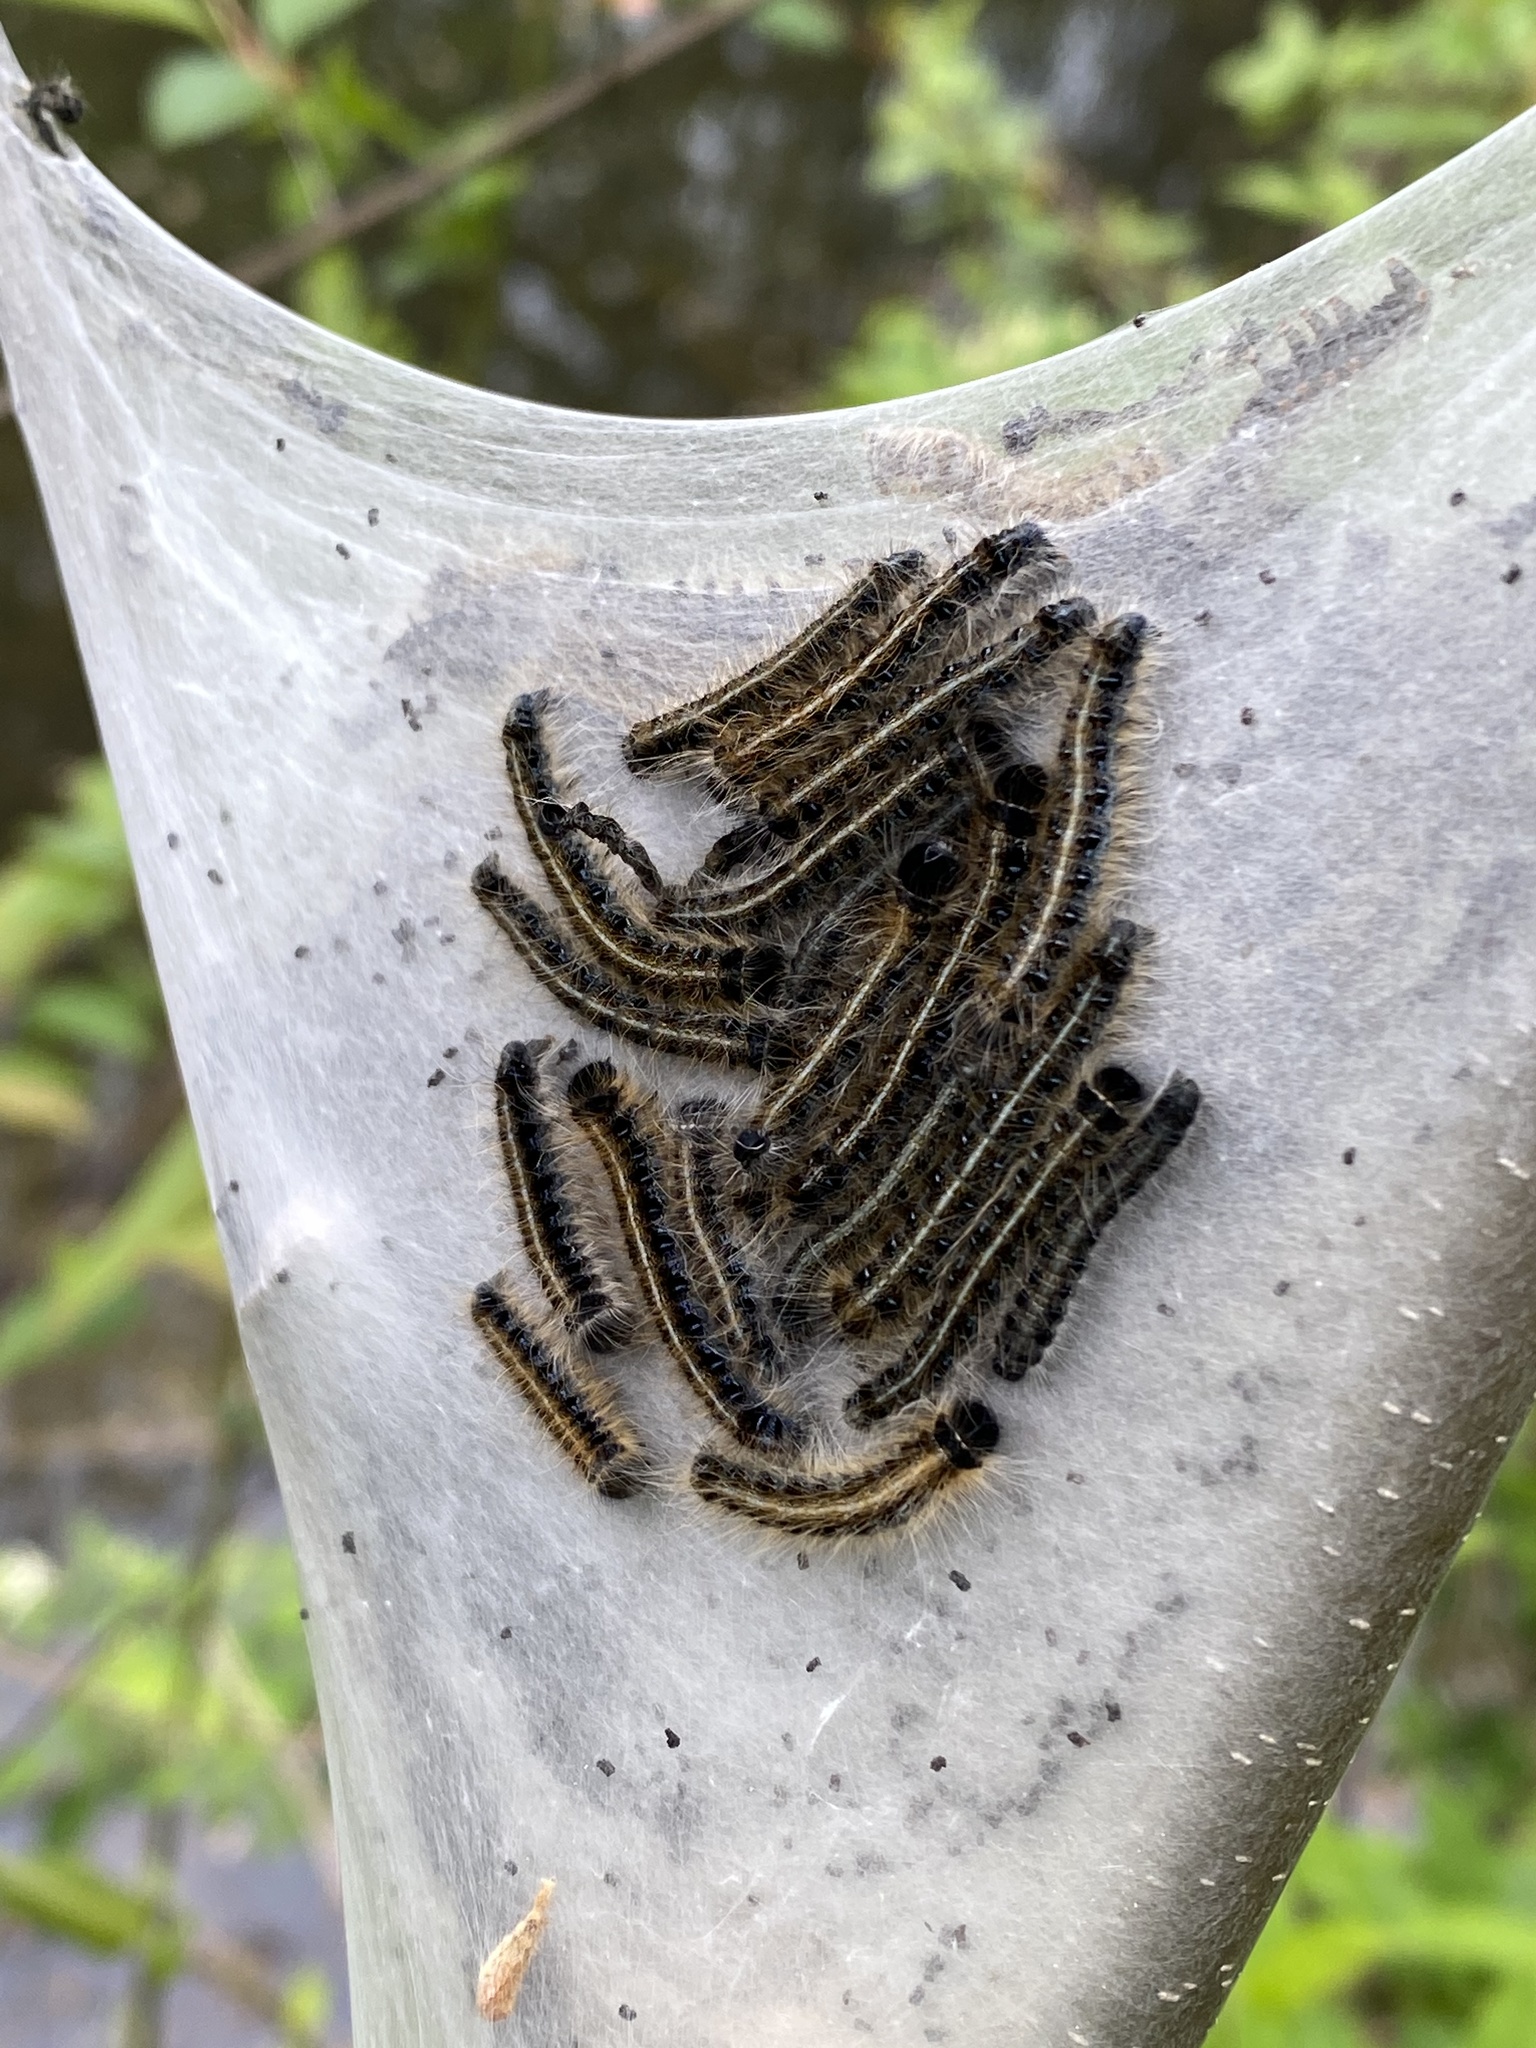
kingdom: Animalia
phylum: Arthropoda
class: Insecta
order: Lepidoptera
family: Lasiocampidae
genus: Malacosoma
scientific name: Malacosoma americana
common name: Eastern tent caterpillar moth
